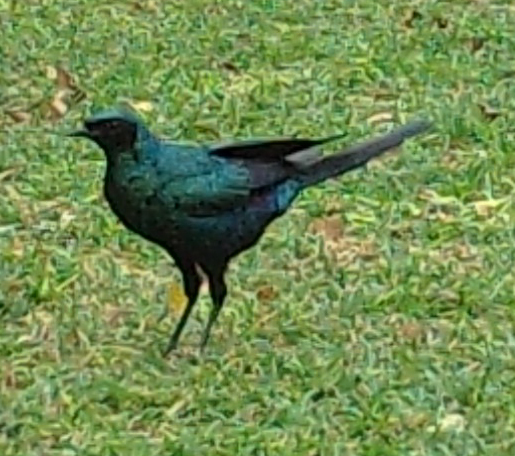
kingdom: Animalia
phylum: Chordata
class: Aves
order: Passeriformes
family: Sturnidae
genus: Lamprotornis
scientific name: Lamprotornis australis
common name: Burchell's starling
